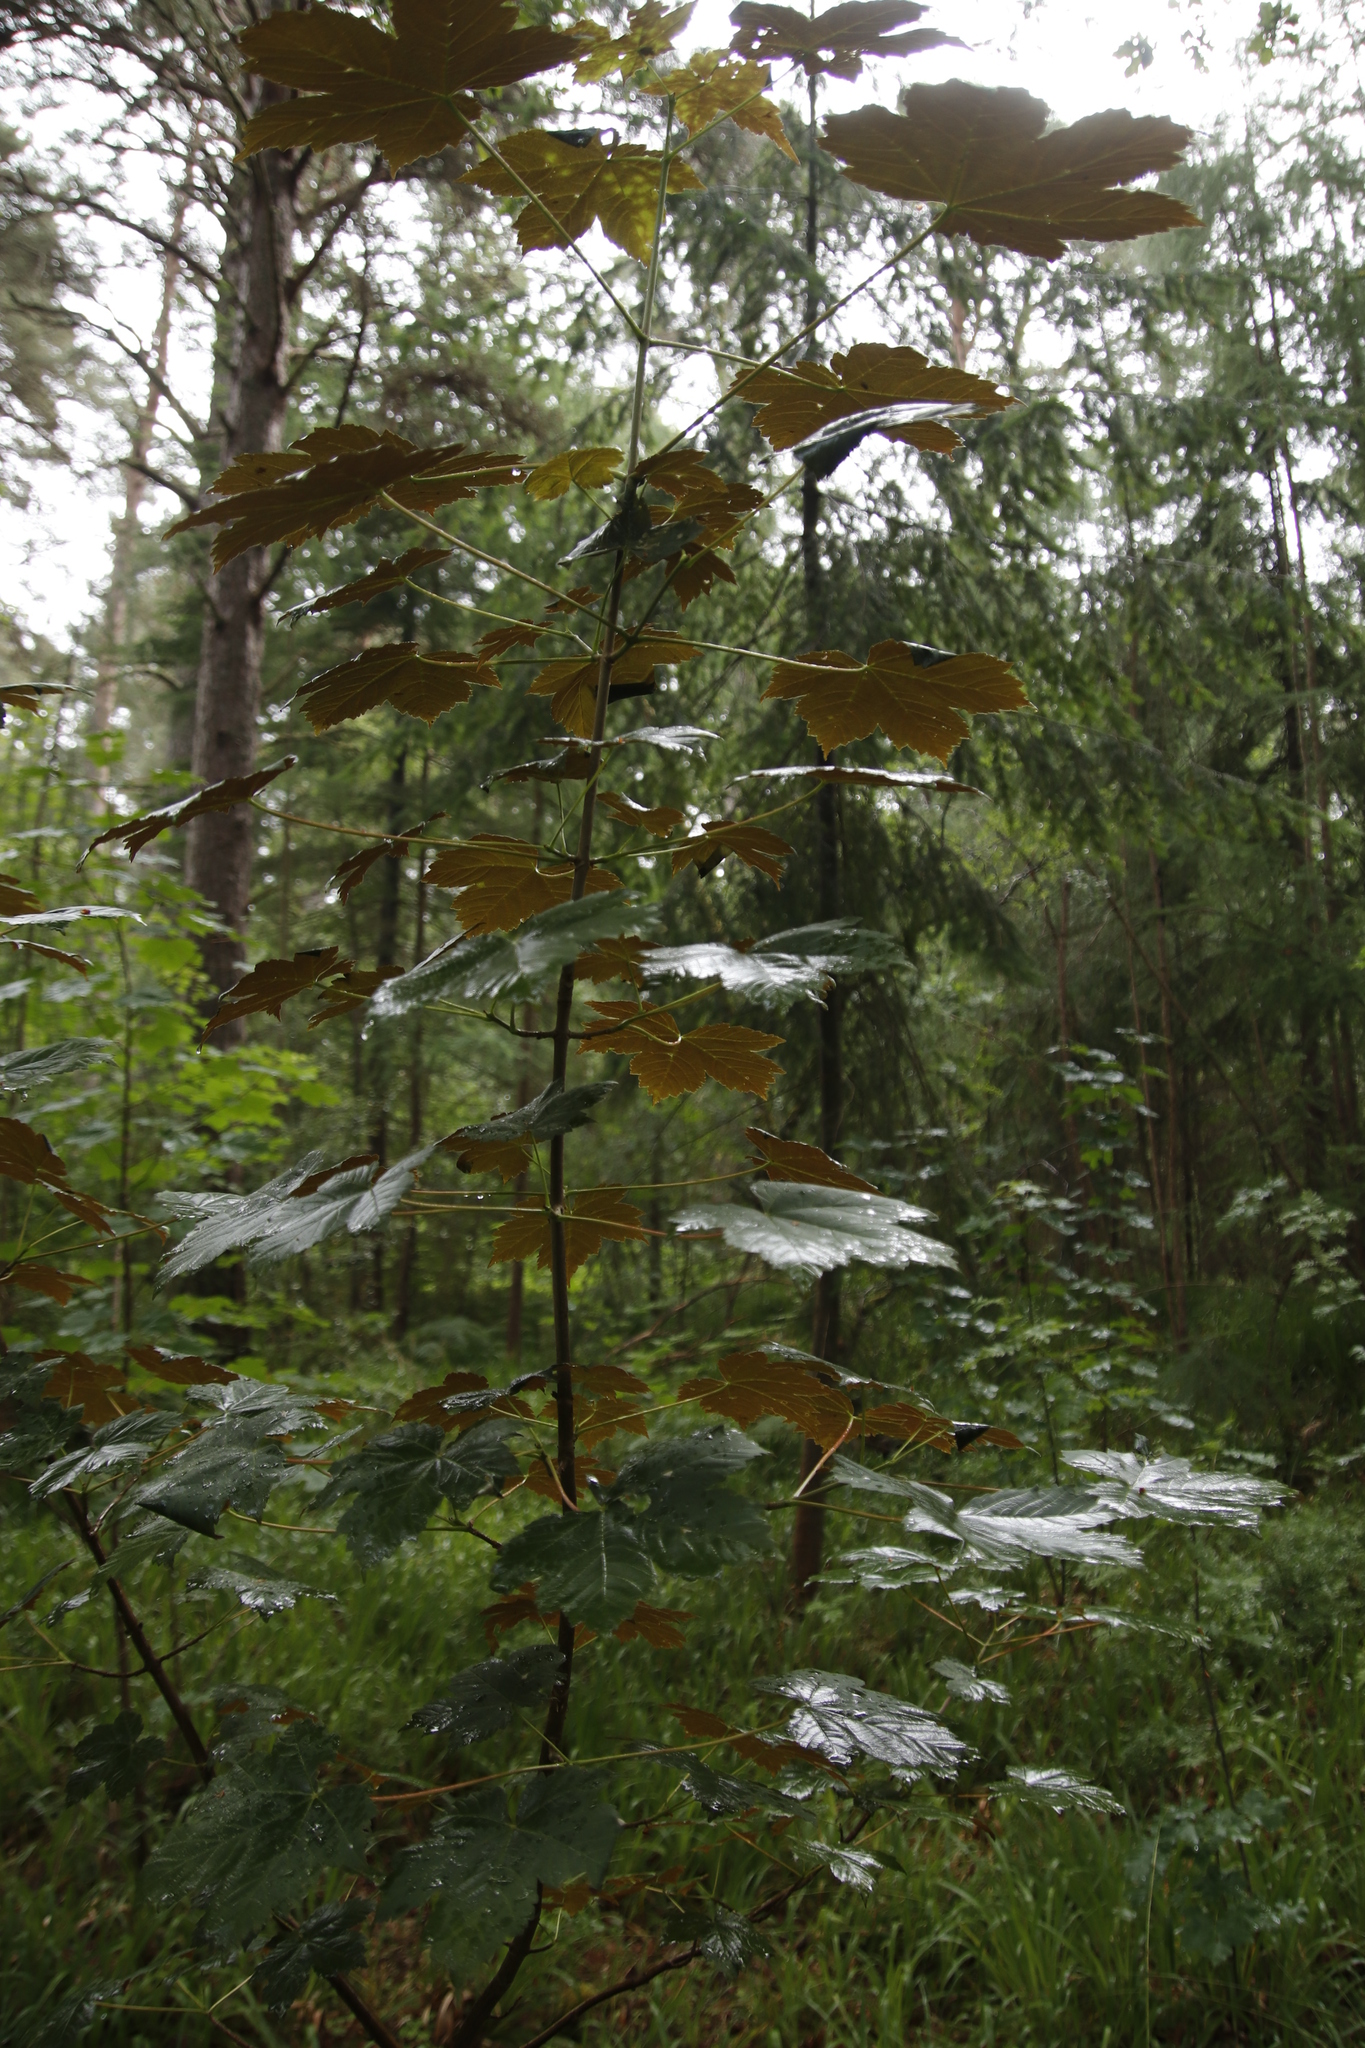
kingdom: Plantae
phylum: Tracheophyta
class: Magnoliopsida
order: Sapindales
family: Sapindaceae
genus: Acer
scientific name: Acer pseudoplatanus
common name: Sycamore
